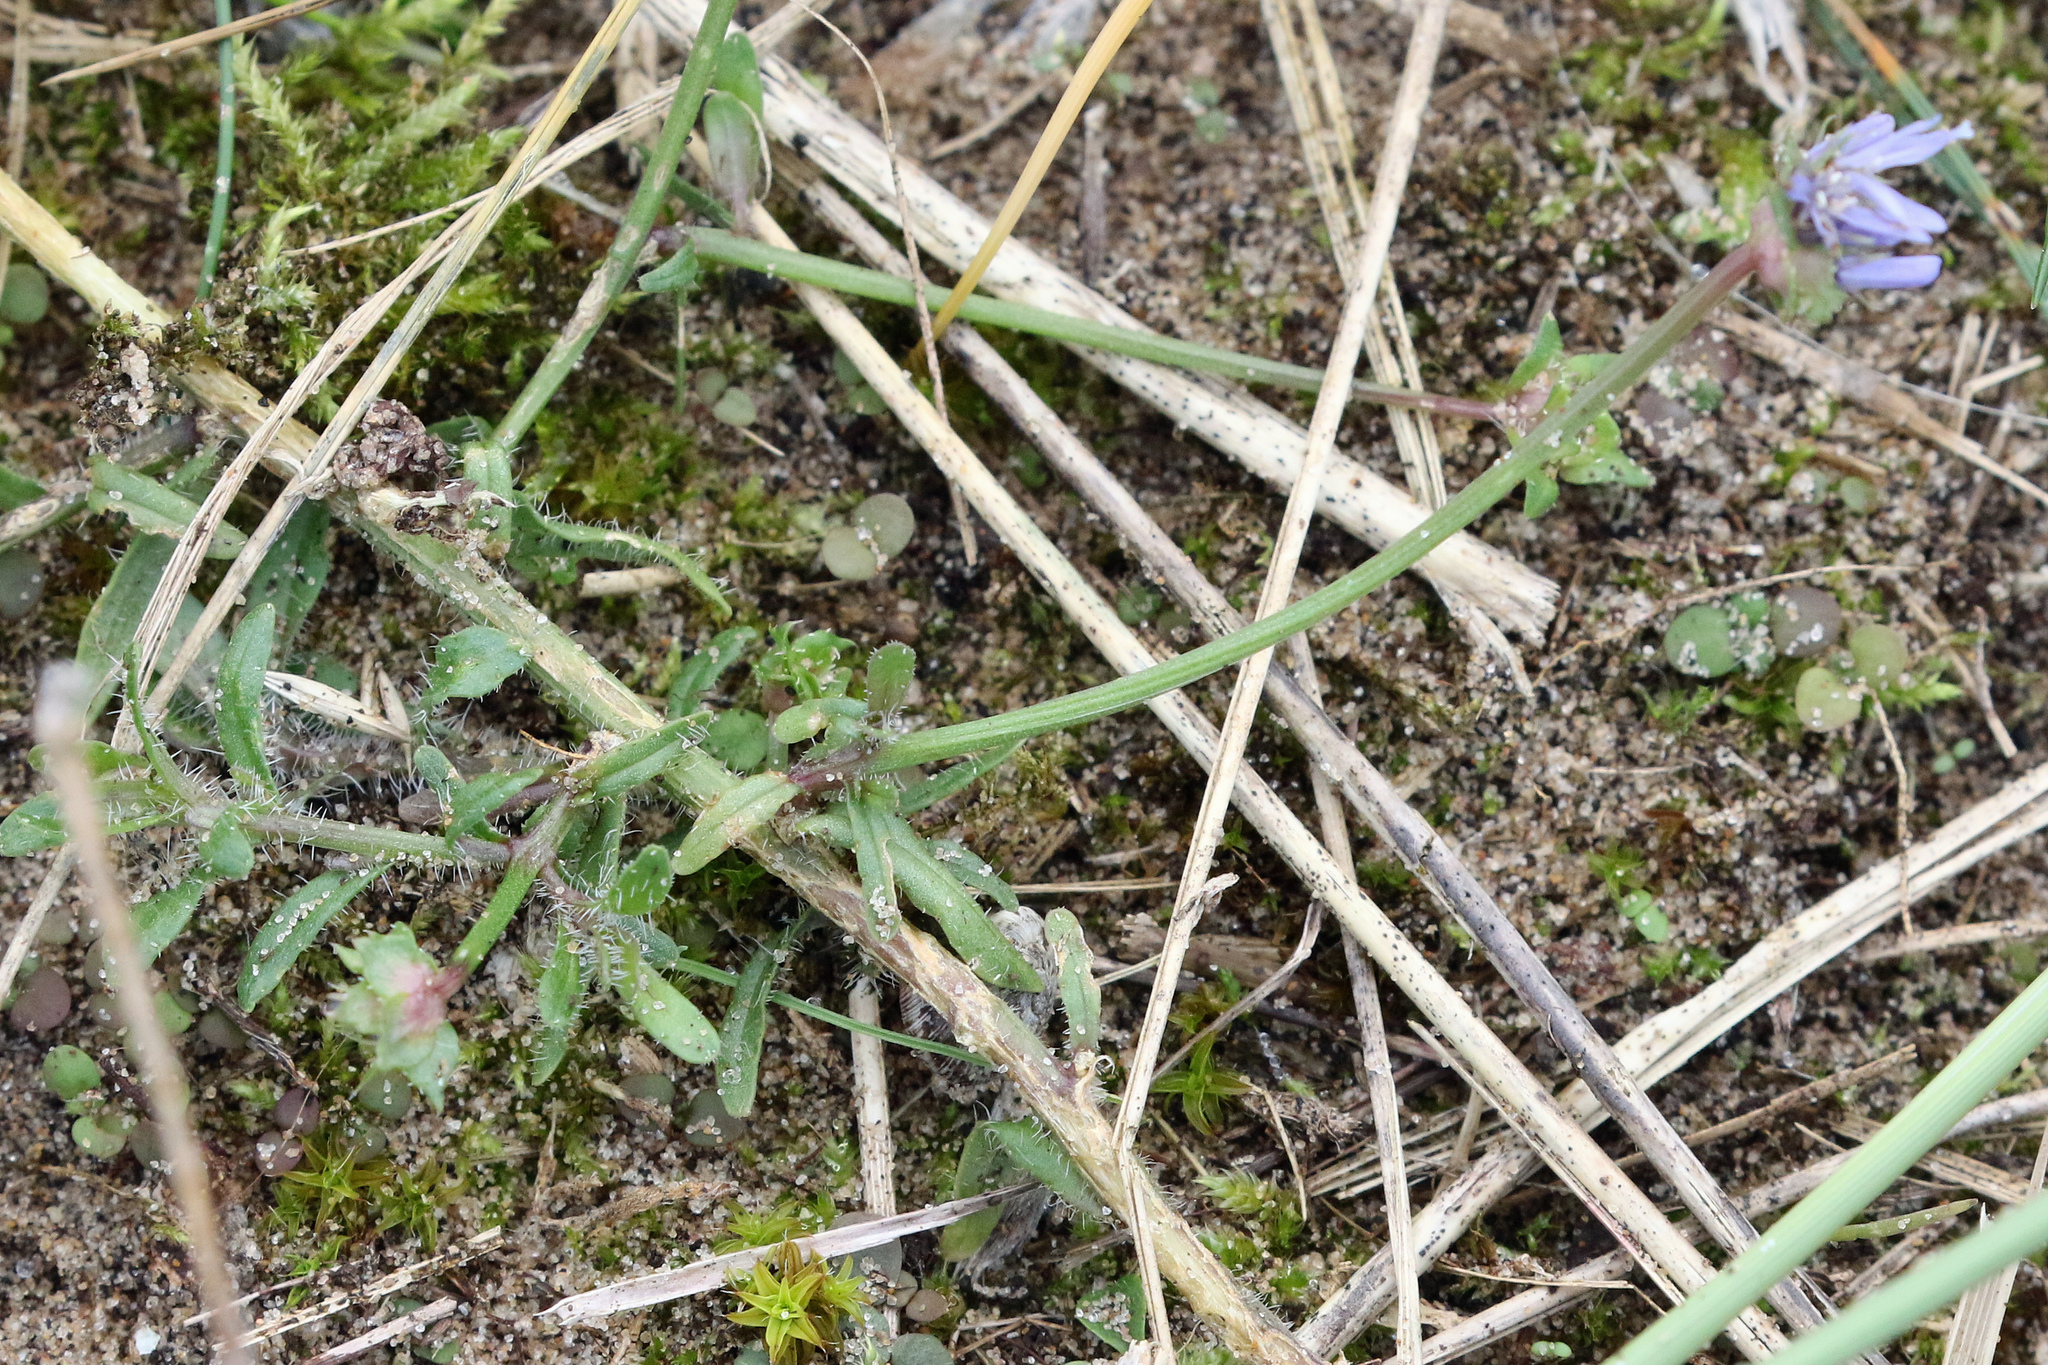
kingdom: Plantae
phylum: Tracheophyta
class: Magnoliopsida
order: Asterales
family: Campanulaceae
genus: Jasione
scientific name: Jasione montana
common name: Sheep's-bit
